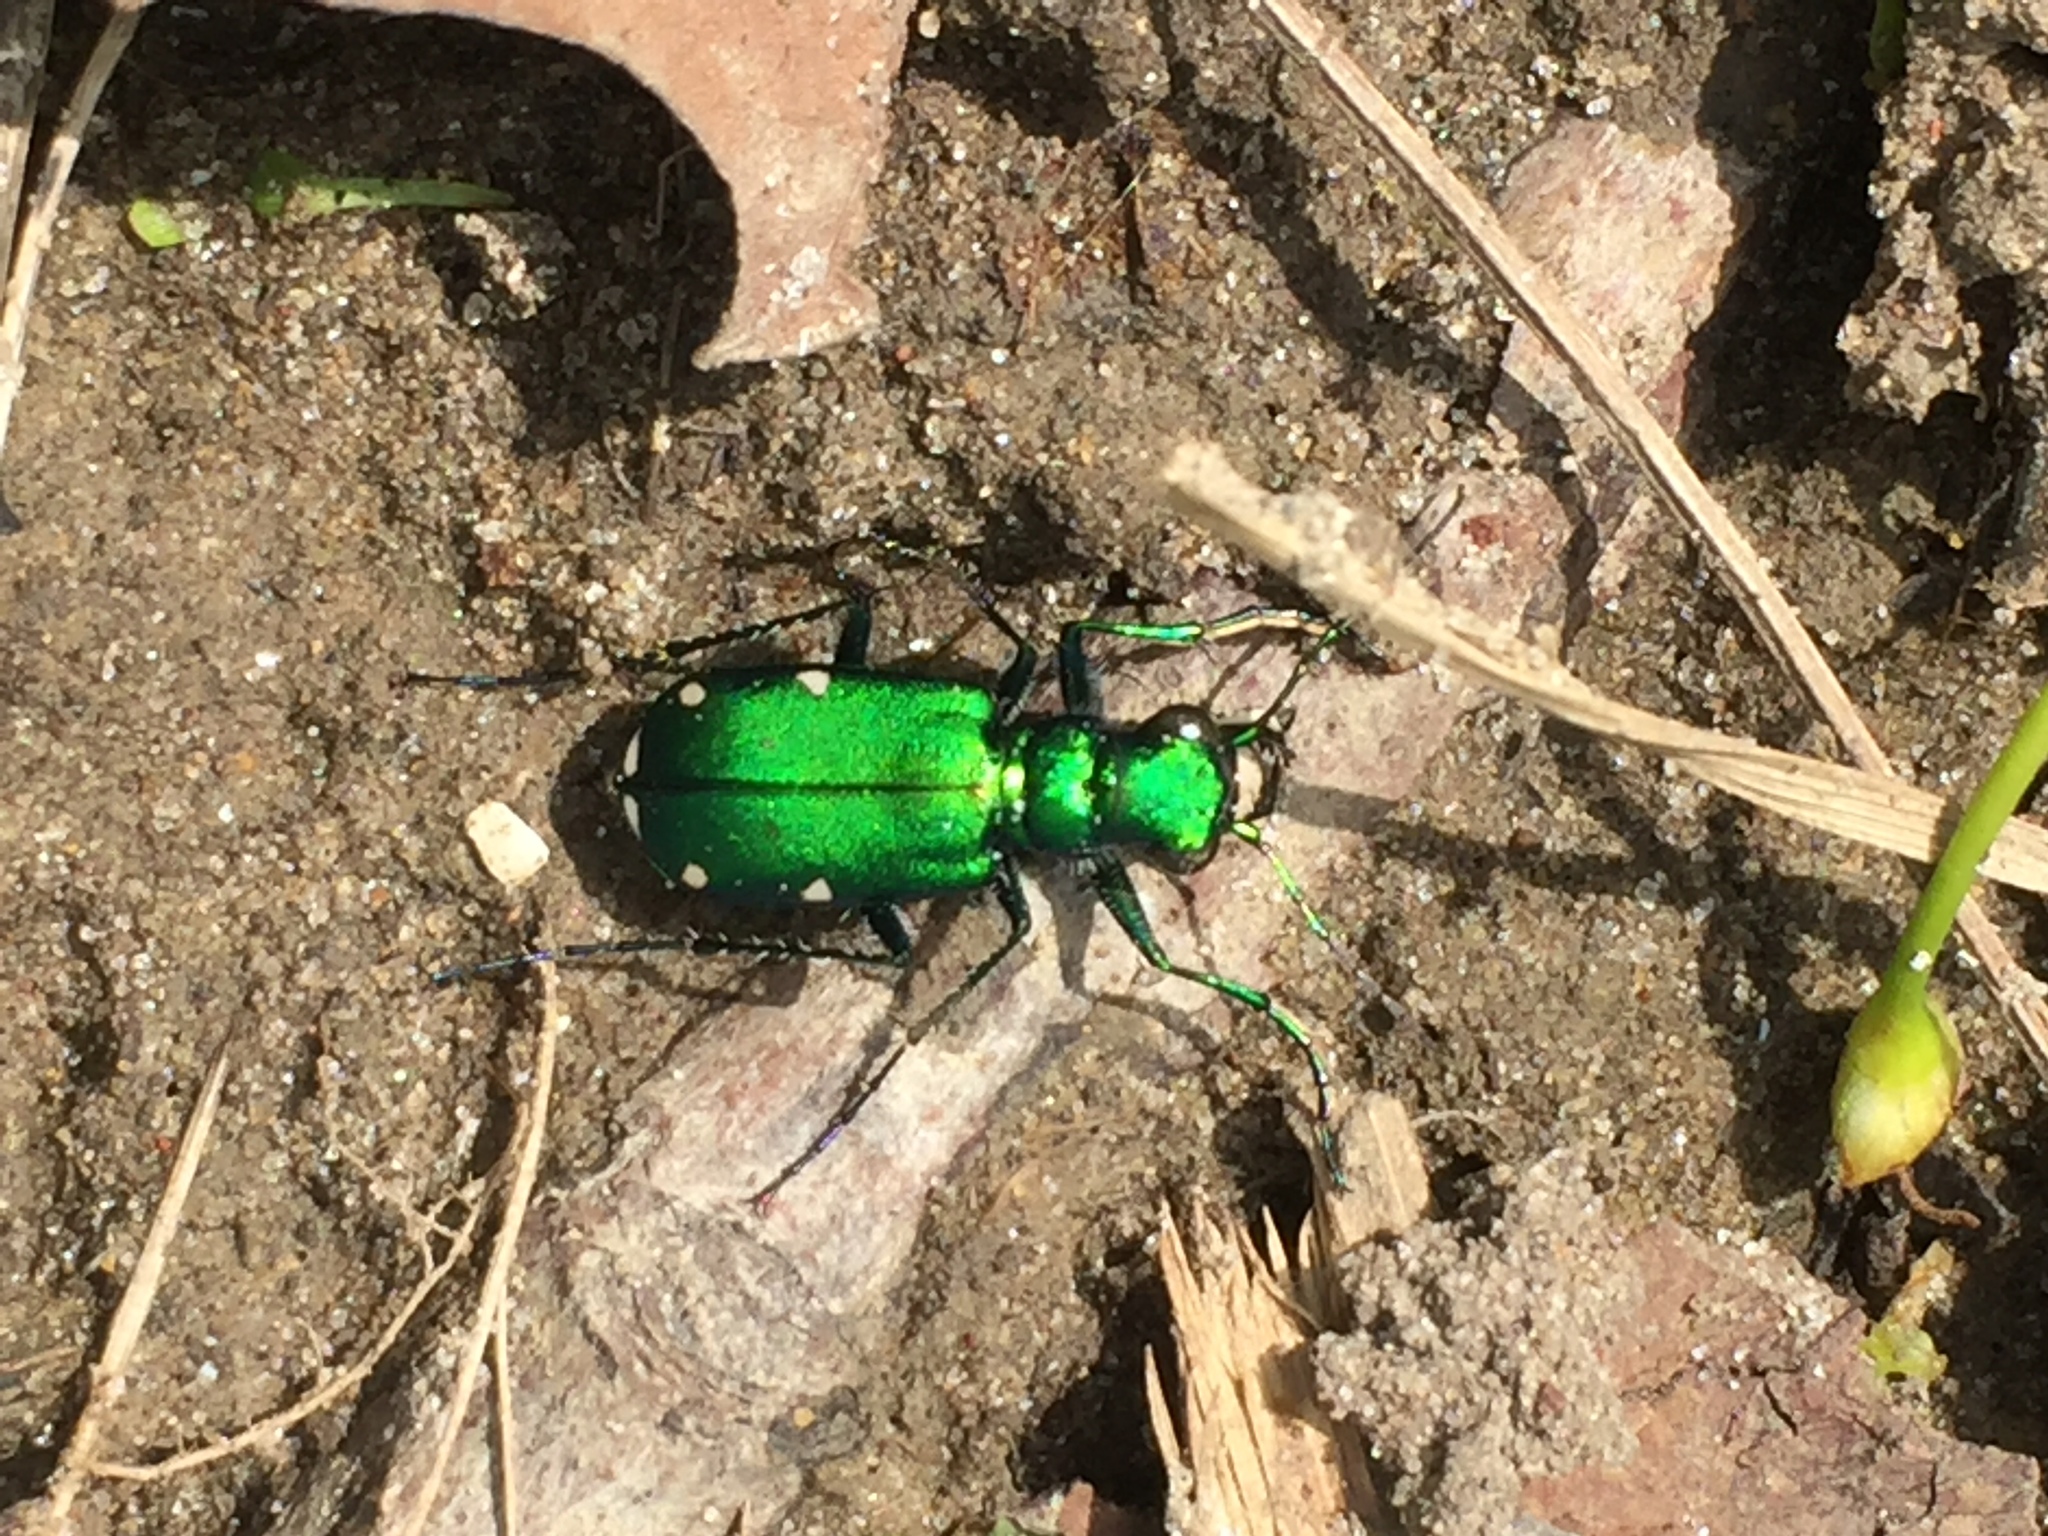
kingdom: Animalia
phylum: Arthropoda
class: Insecta
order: Coleoptera
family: Carabidae
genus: Cicindela
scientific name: Cicindela sexguttata
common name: Six-spotted tiger beetle
